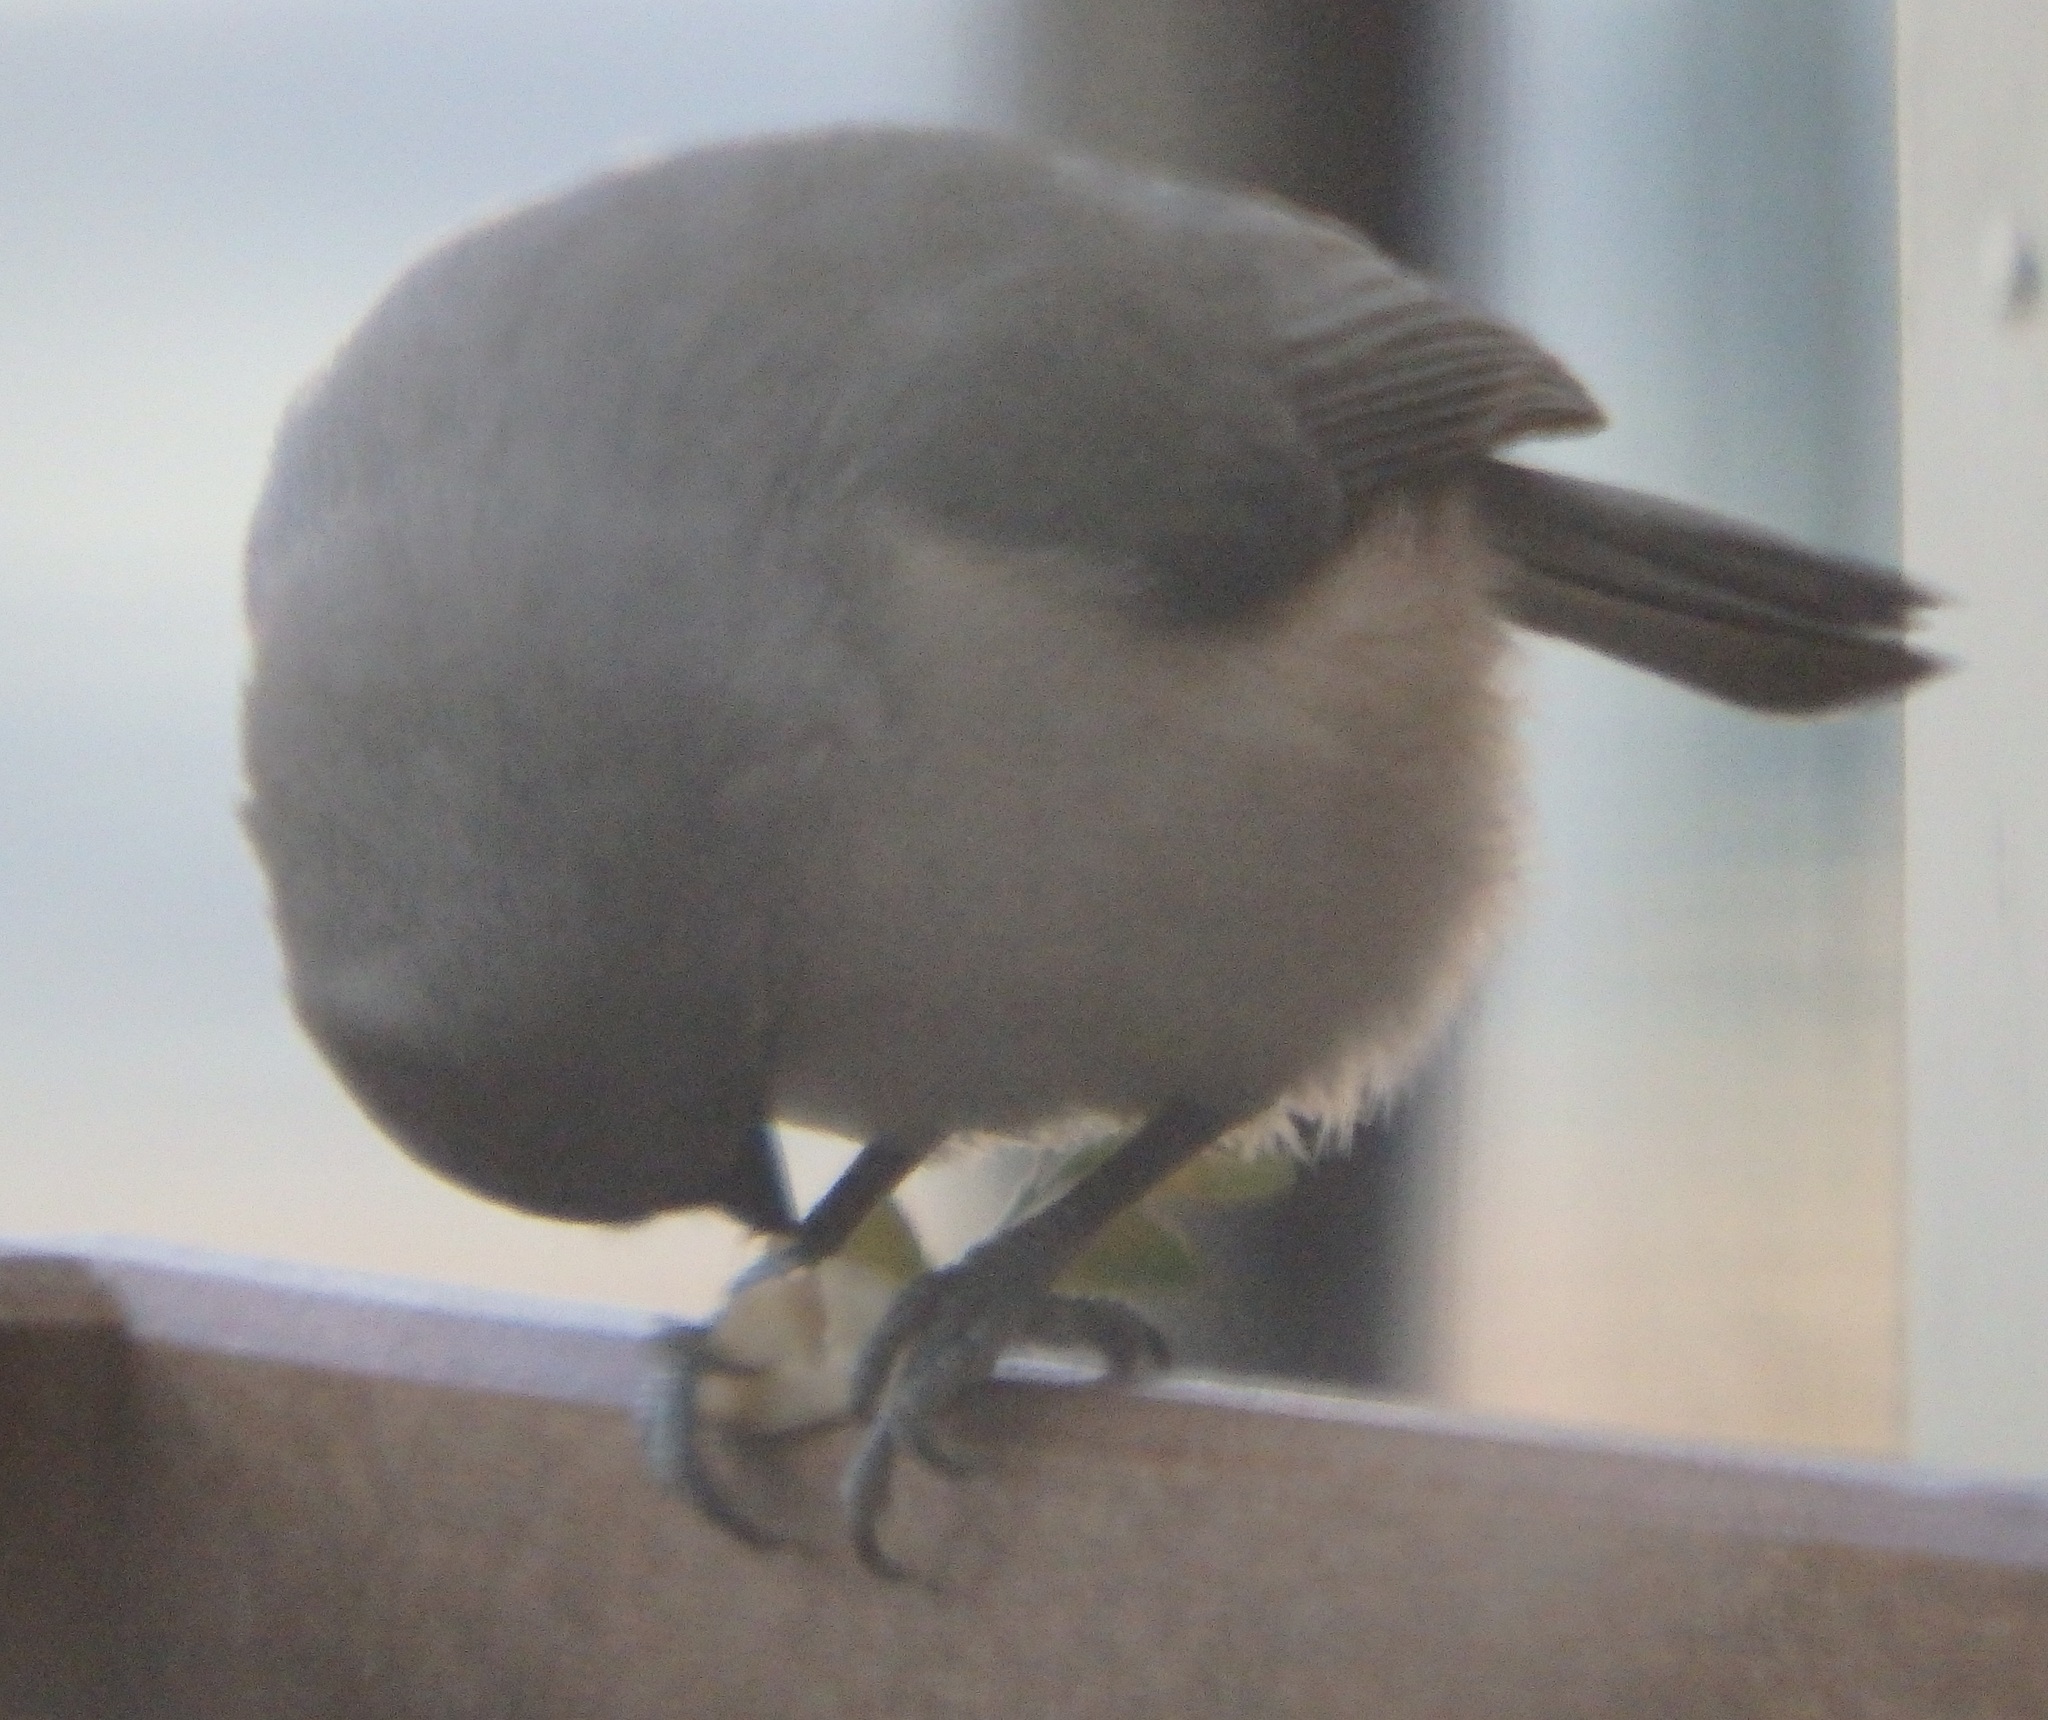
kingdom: Animalia
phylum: Chordata
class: Aves
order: Passeriformes
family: Paridae
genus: Baeolophus
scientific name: Baeolophus bicolor
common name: Tufted titmouse
